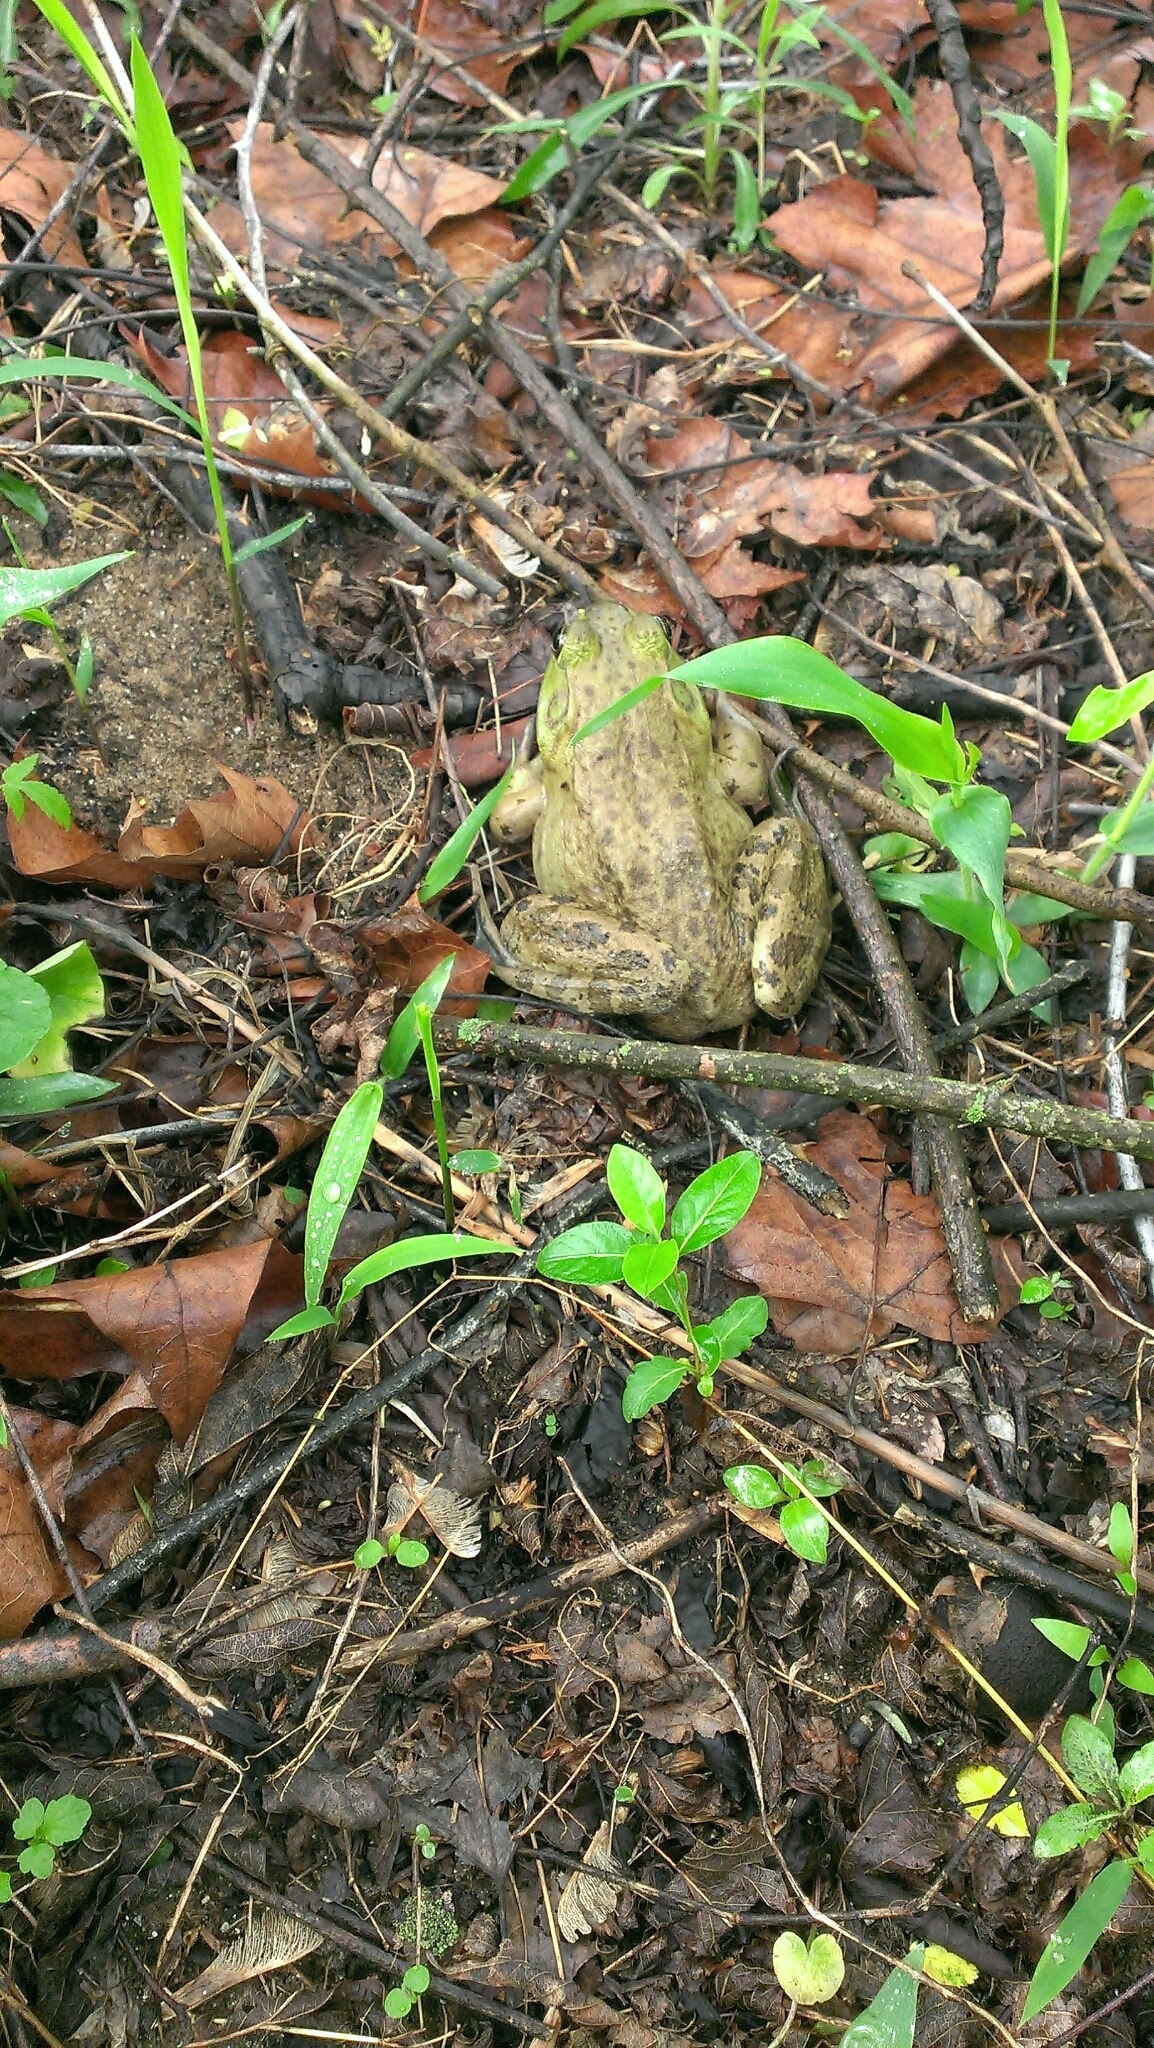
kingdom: Animalia
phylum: Chordata
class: Amphibia
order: Anura
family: Ranidae
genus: Lithobates
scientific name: Lithobates catesbeianus
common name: American bullfrog
